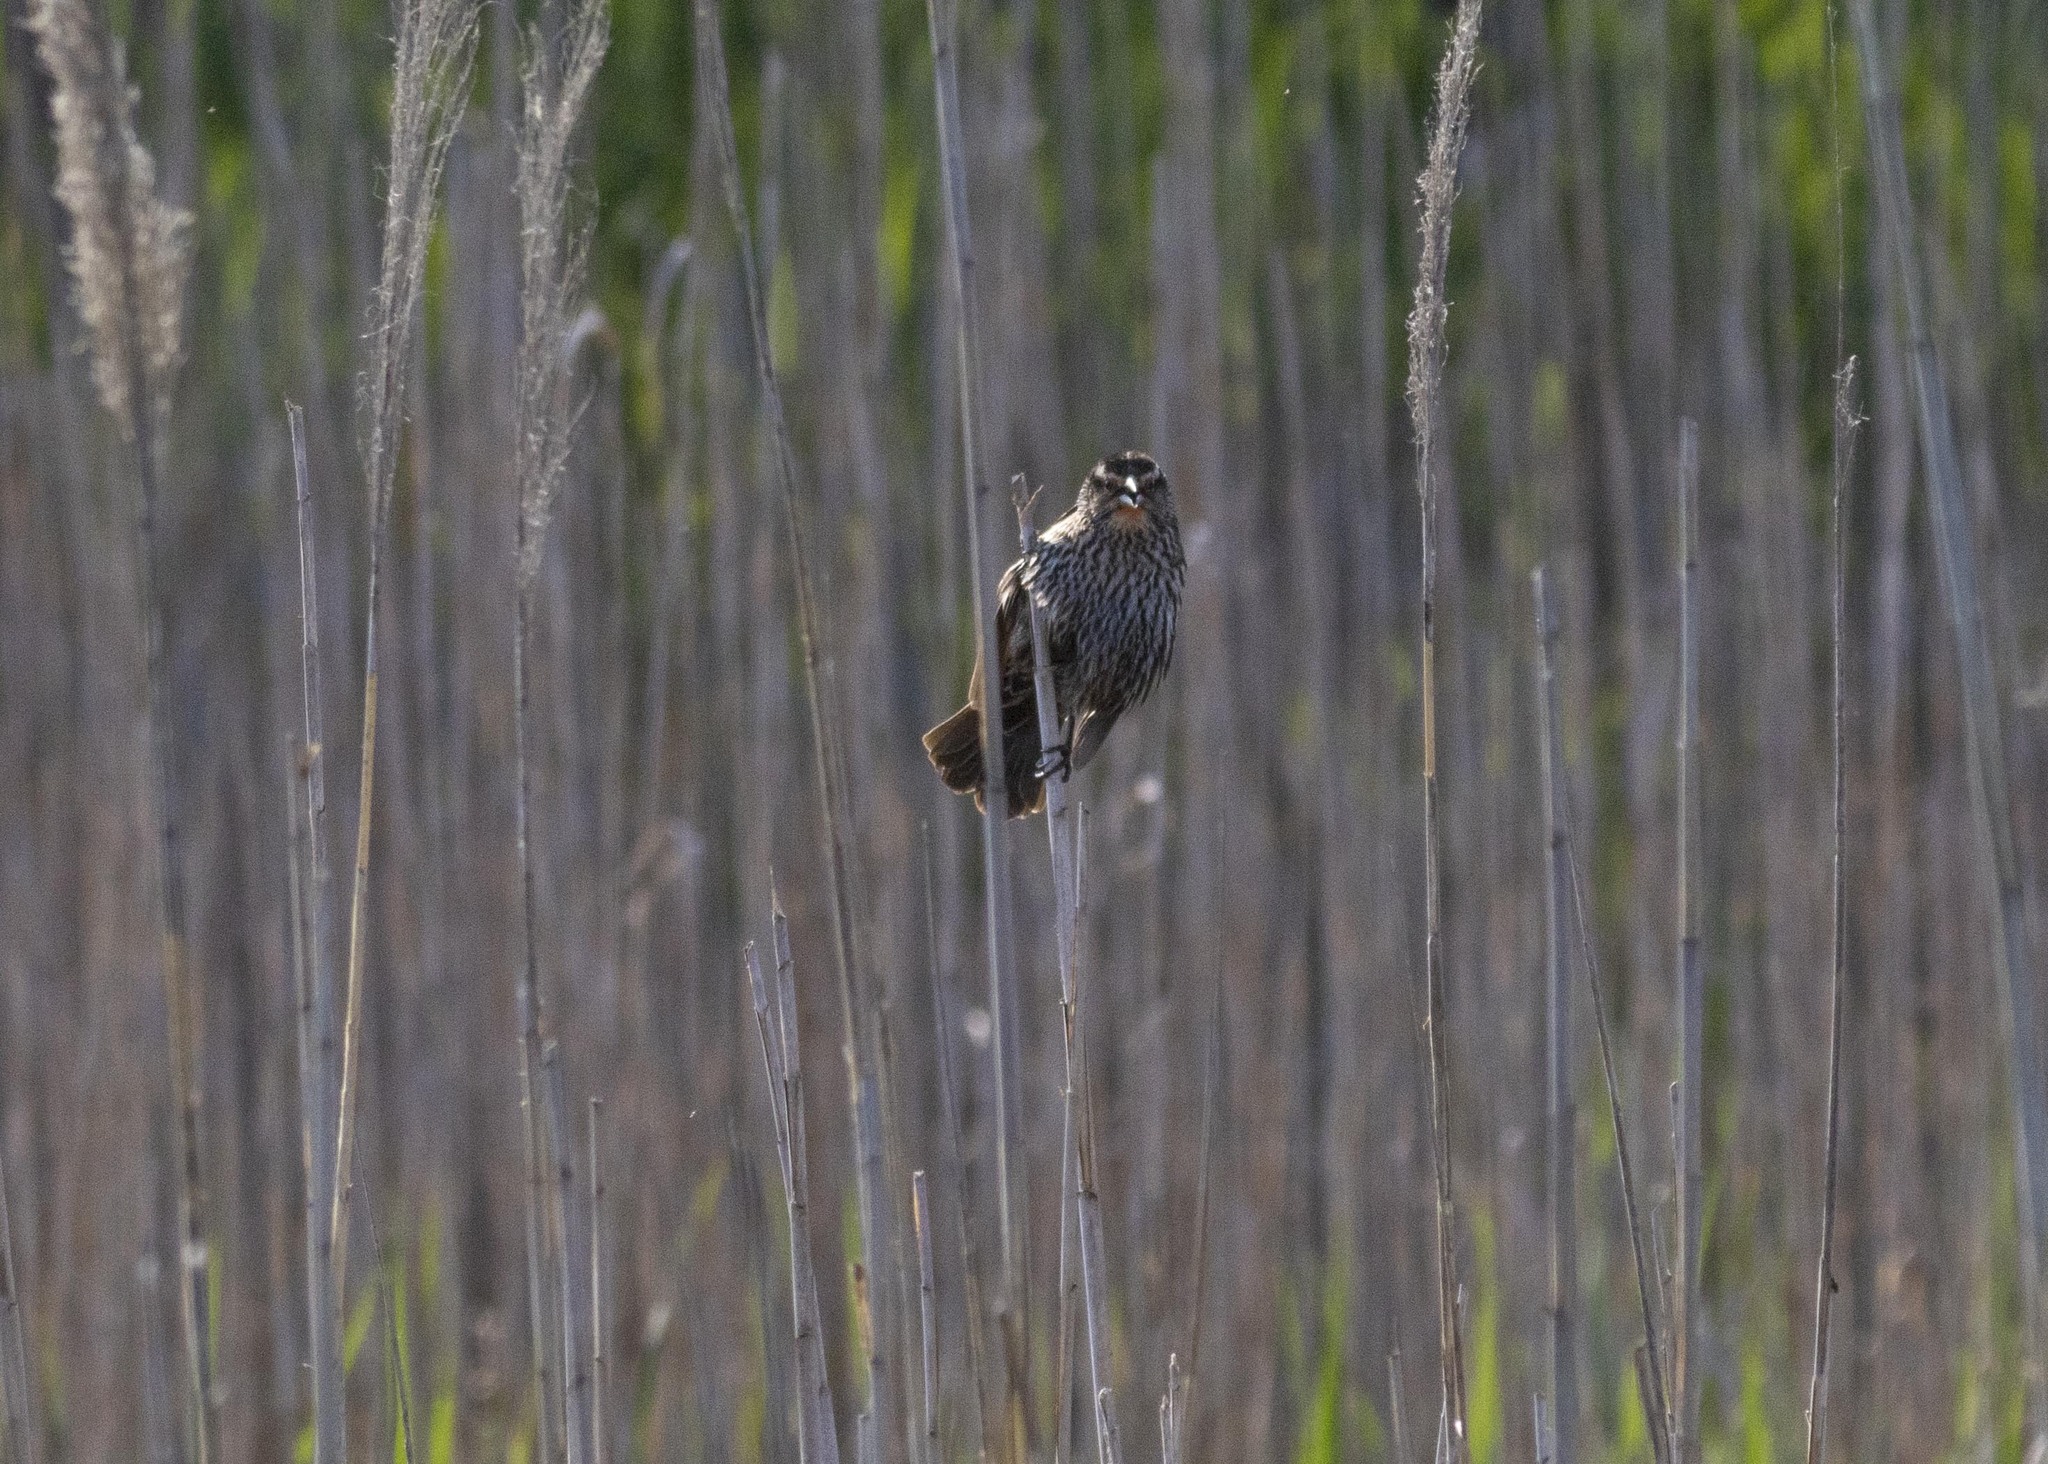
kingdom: Animalia
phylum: Chordata
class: Aves
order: Passeriformes
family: Icteridae
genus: Agelaius
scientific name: Agelaius phoeniceus
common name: Red-winged blackbird
